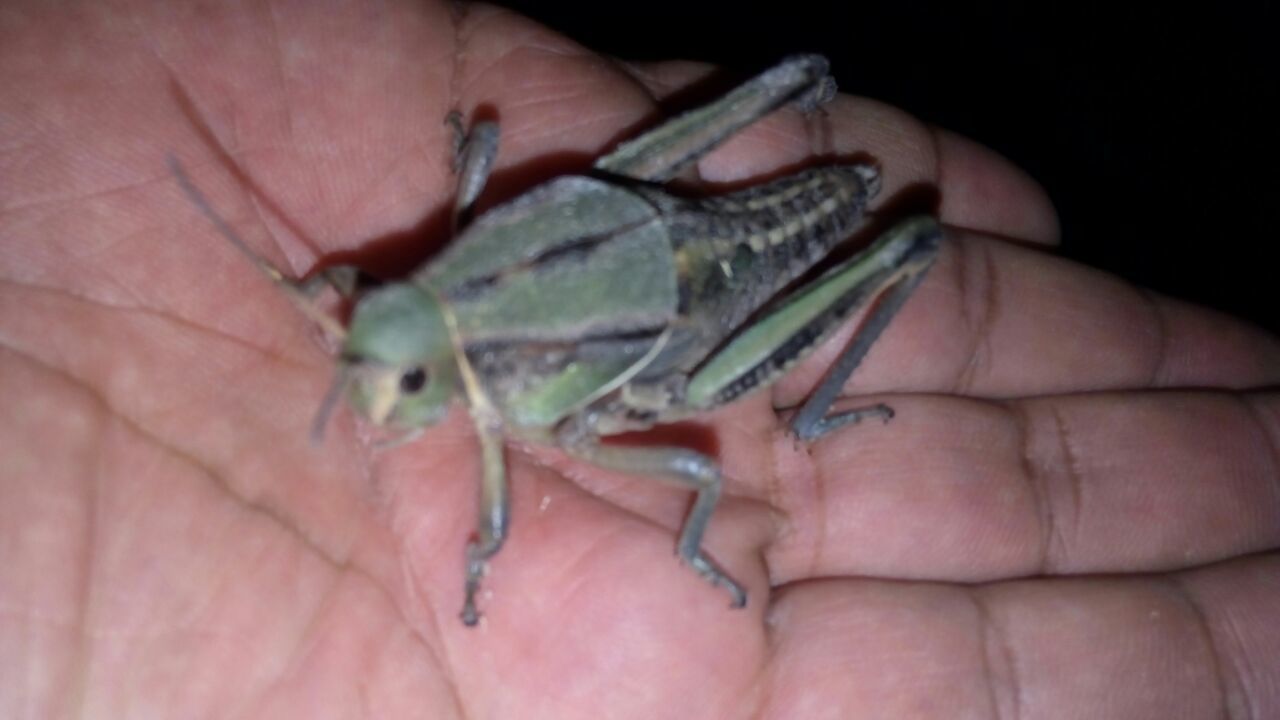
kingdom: Animalia
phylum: Arthropoda
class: Insecta
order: Orthoptera
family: Romaleidae
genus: Brachystola
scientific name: Brachystola mexicana
